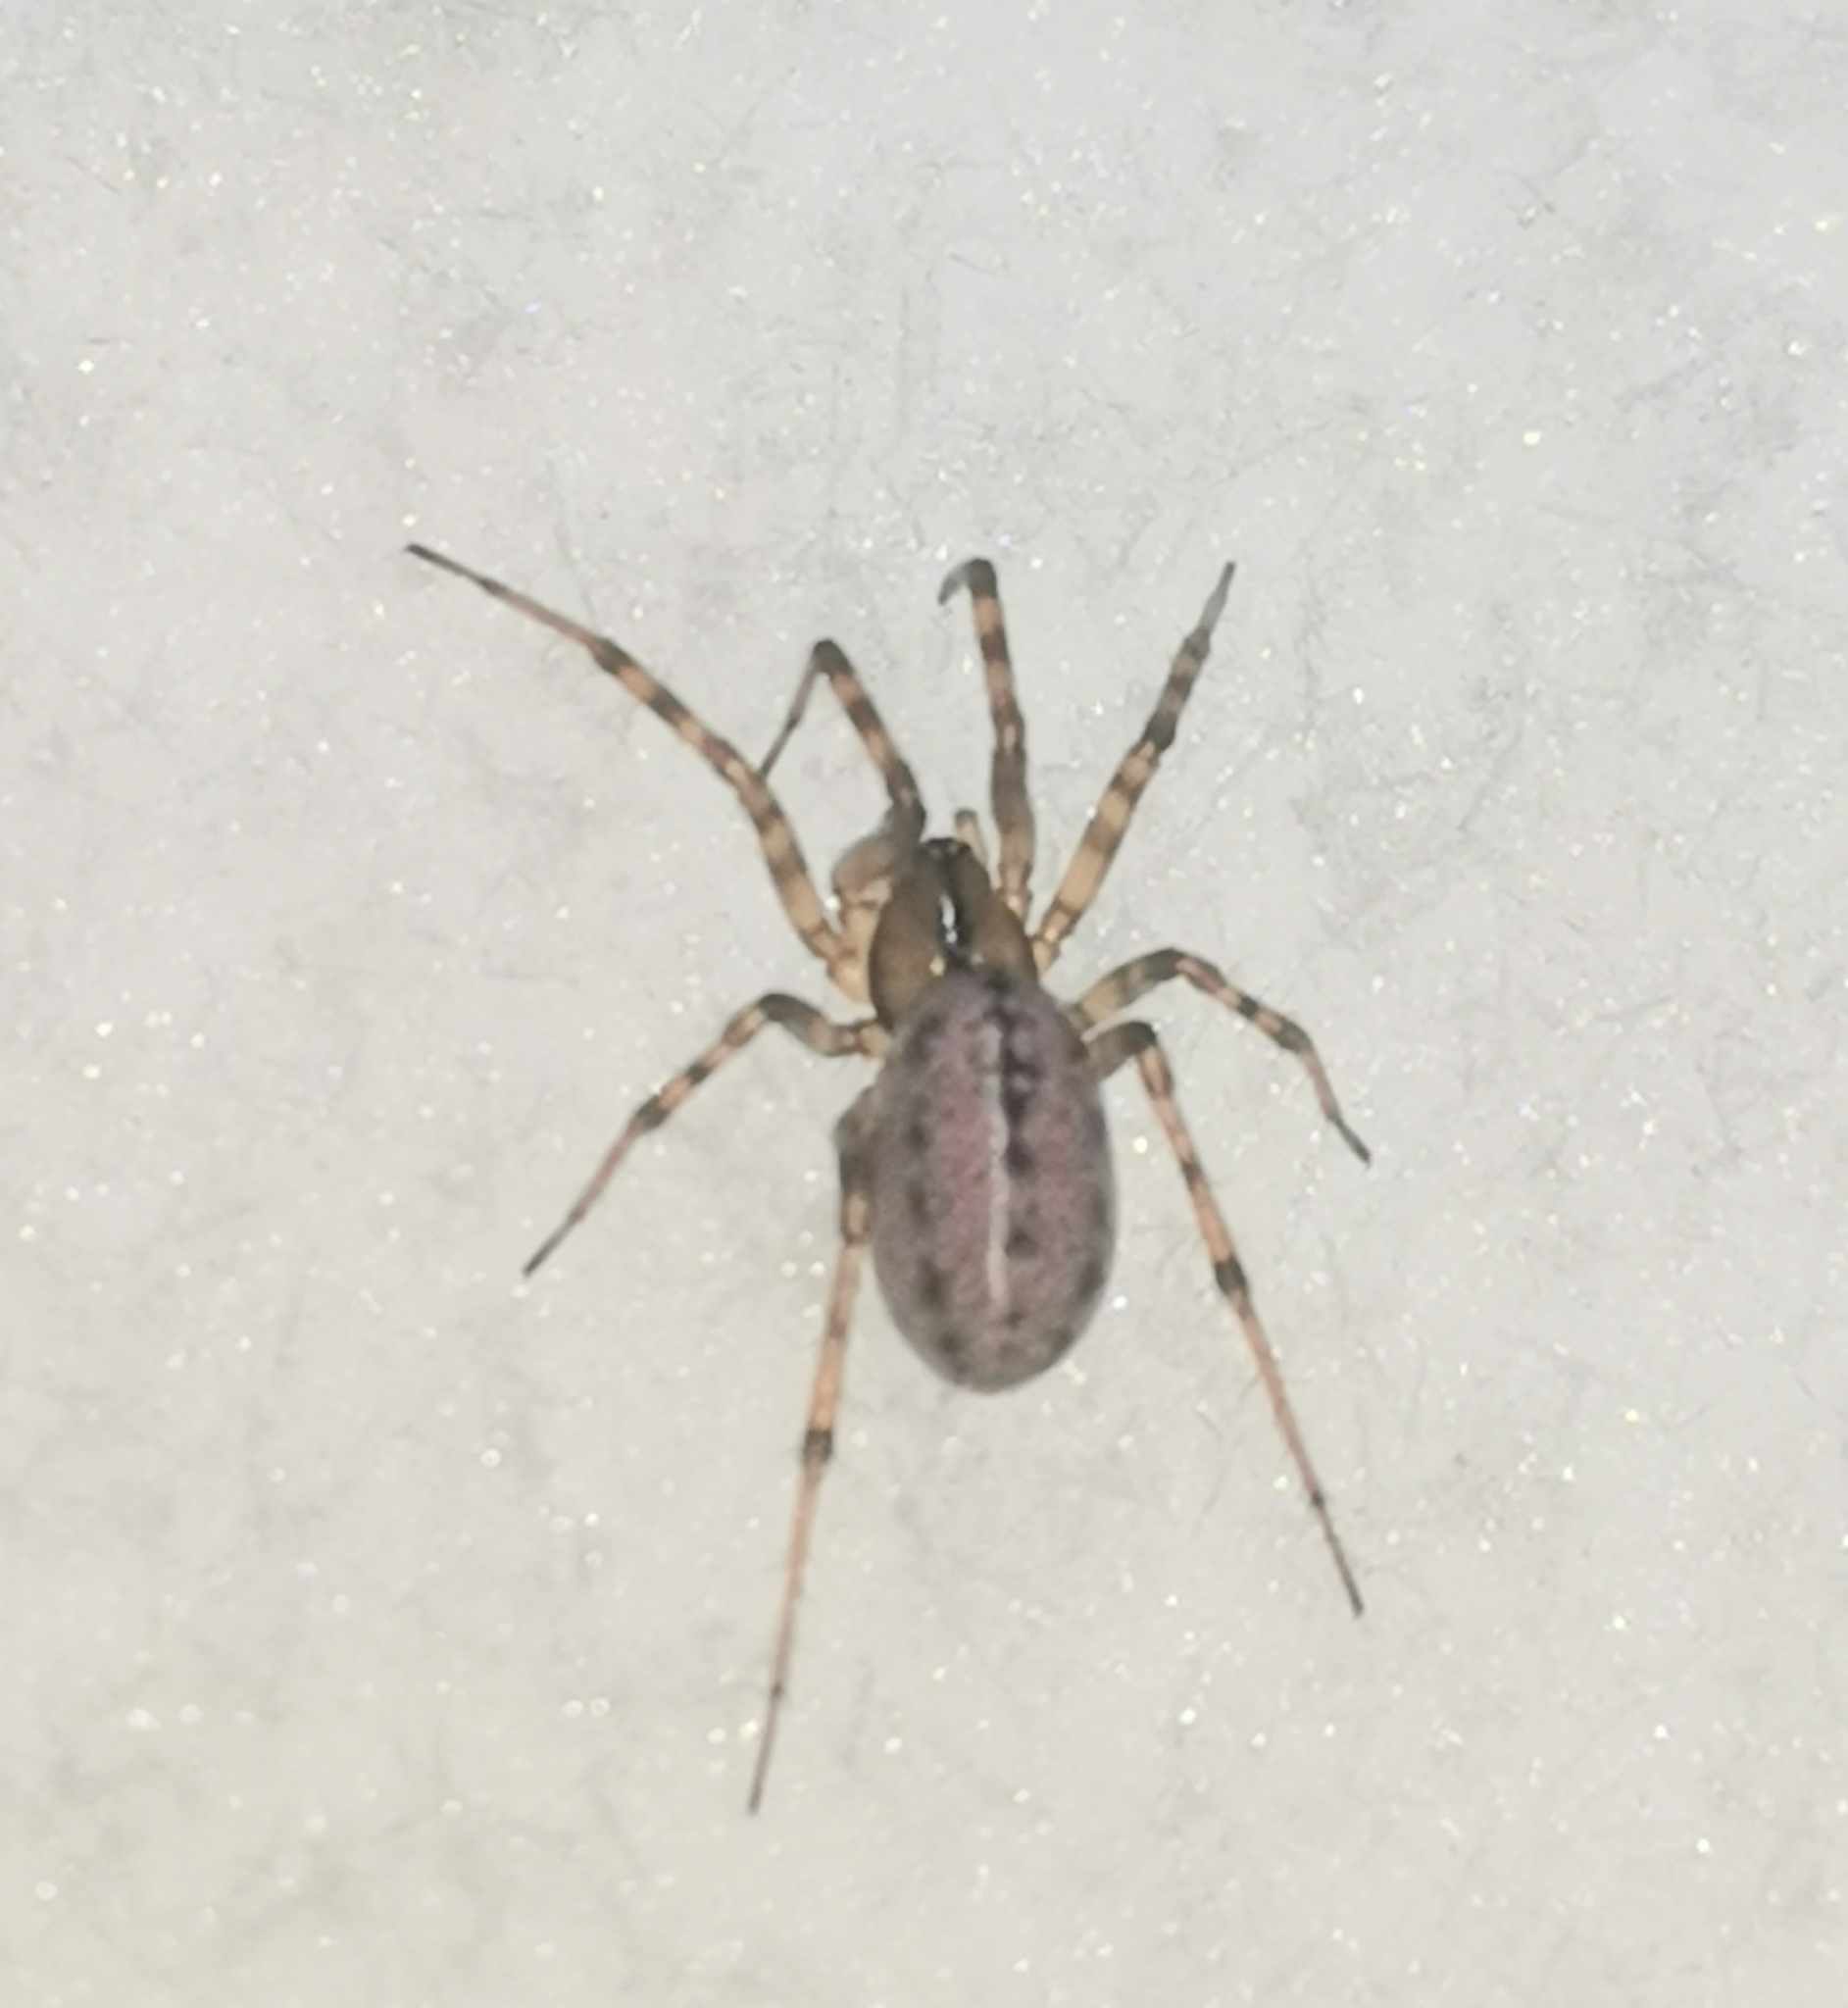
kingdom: Animalia
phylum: Arthropoda
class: Arachnida
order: Araneae
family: Linyphiidae
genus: Stemonyphantes
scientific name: Stemonyphantes lineatus
